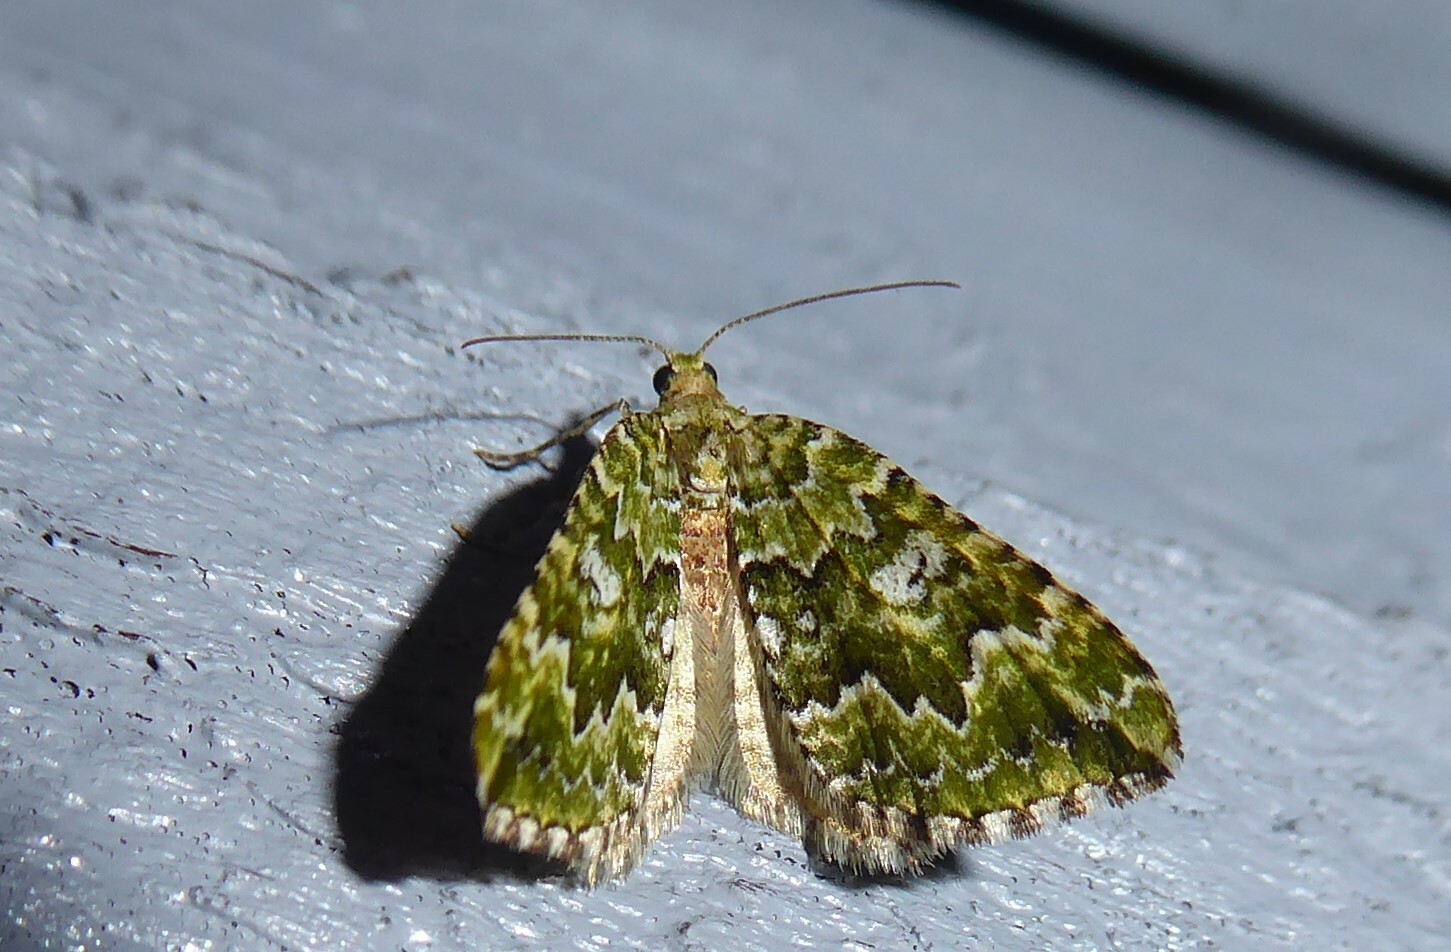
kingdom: Animalia
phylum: Arthropoda
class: Insecta
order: Lepidoptera
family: Geometridae
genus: Asaphodes
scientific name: Asaphodes beata
